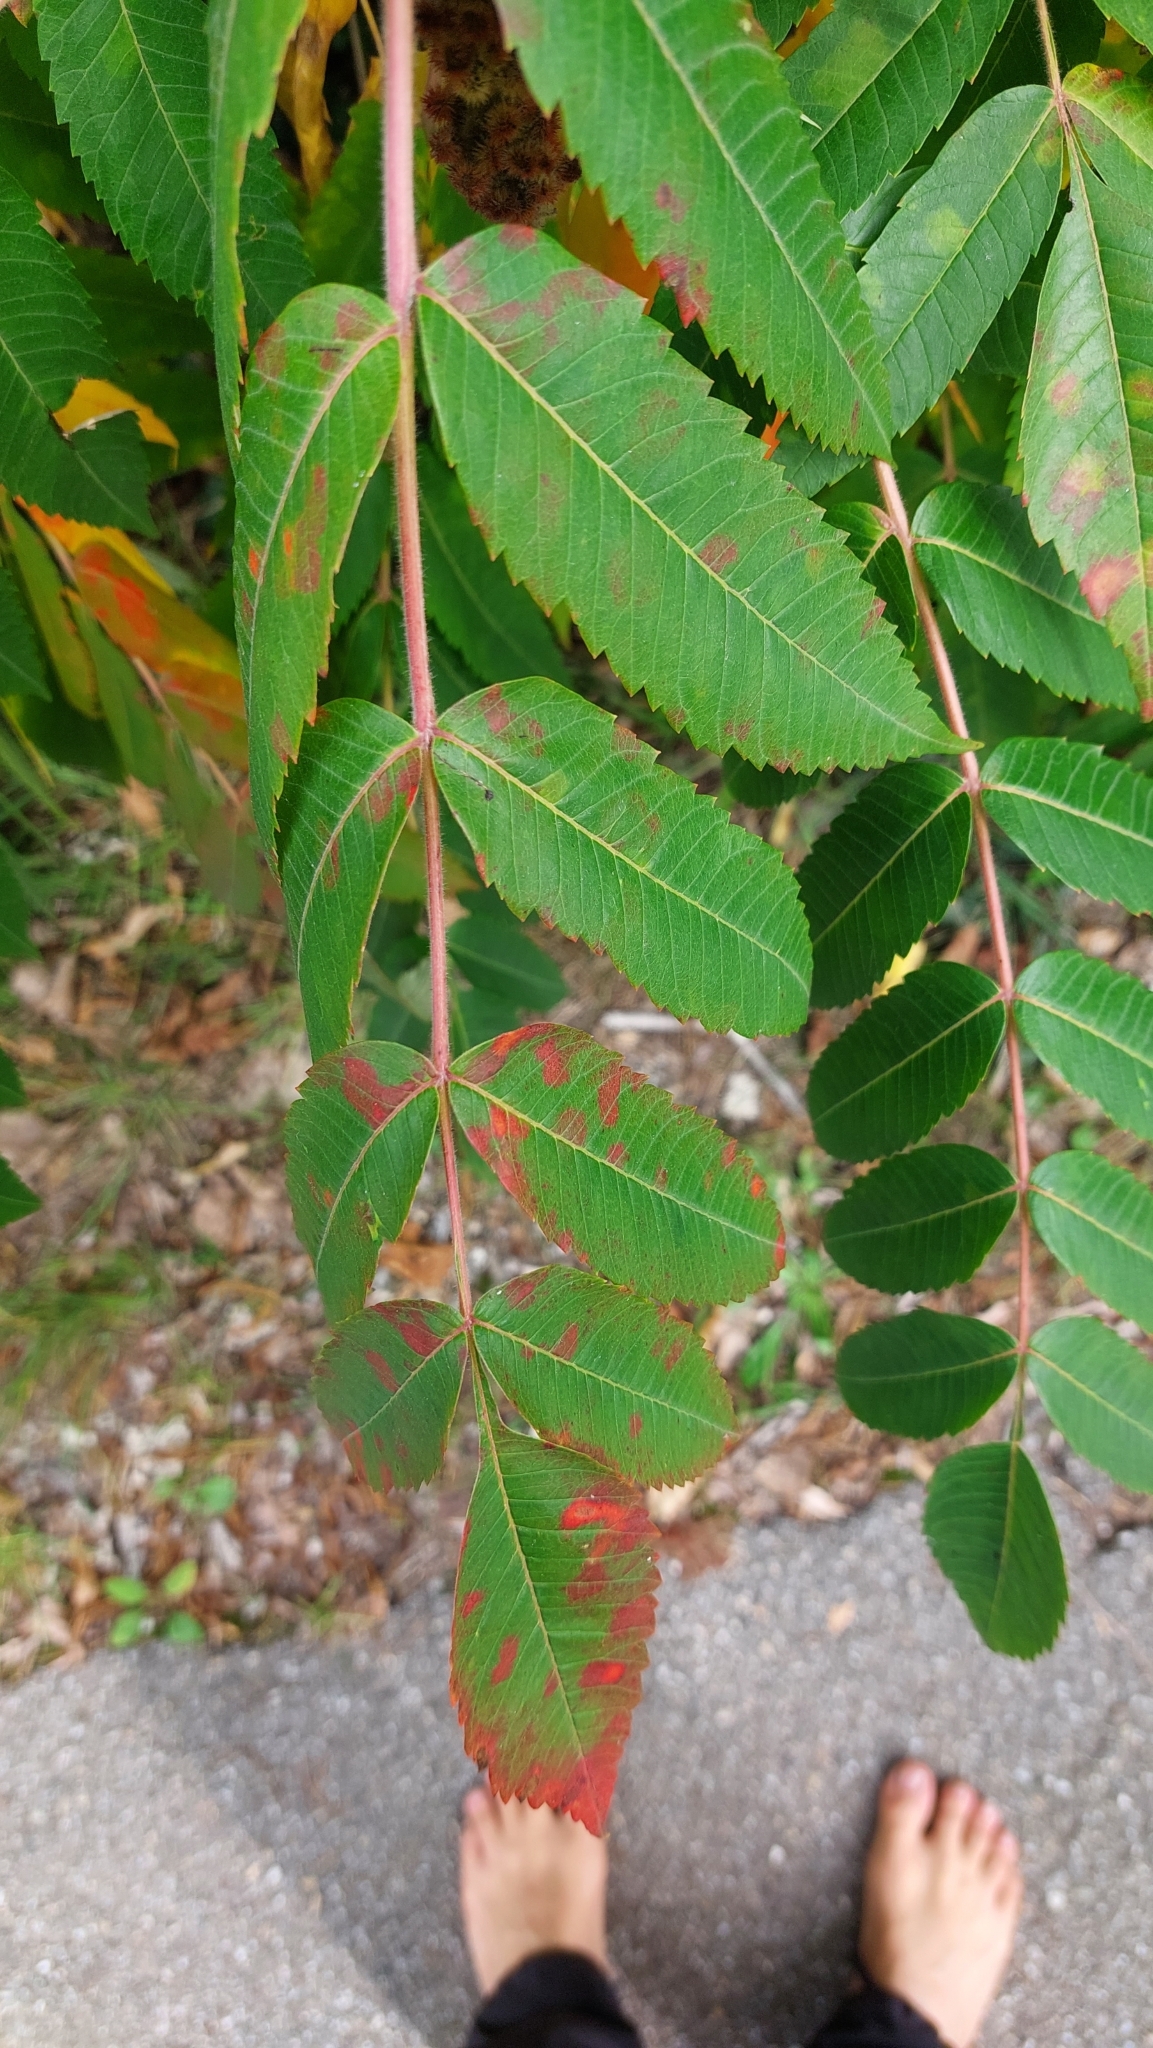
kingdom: Plantae
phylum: Tracheophyta
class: Magnoliopsida
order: Sapindales
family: Anacardiaceae
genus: Rhus
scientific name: Rhus typhina
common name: Staghorn sumac
